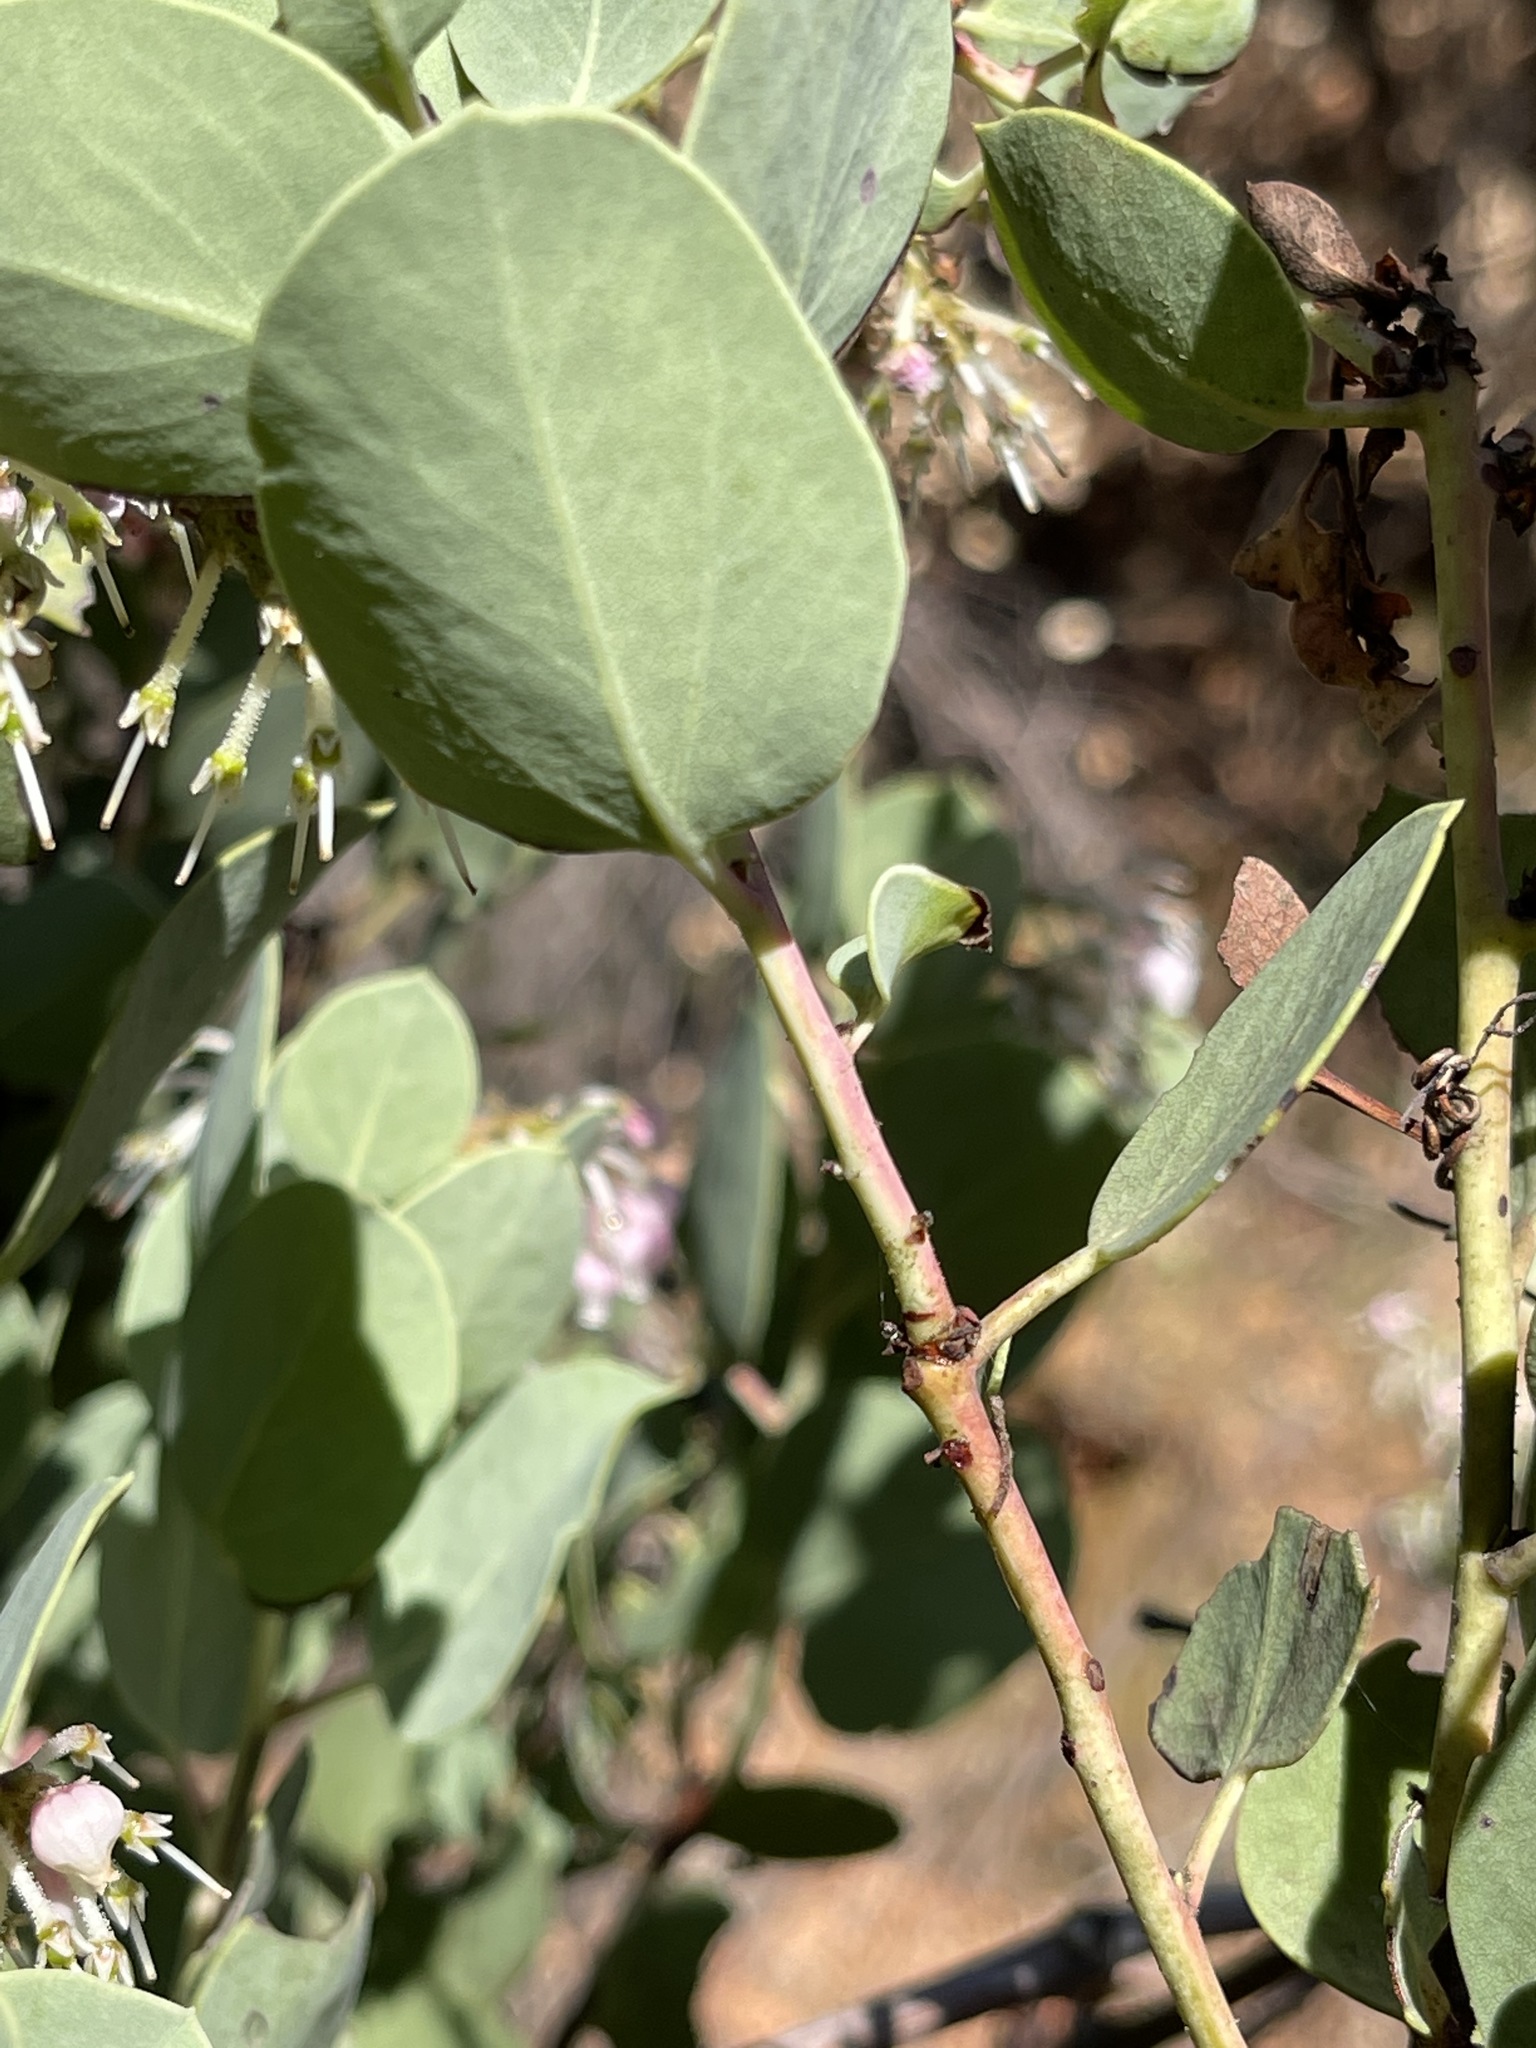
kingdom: Plantae
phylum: Tracheophyta
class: Magnoliopsida
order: Ericales
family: Ericaceae
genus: Arctostaphylos
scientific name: Arctostaphylos viscida
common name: White-leaf manzanita
